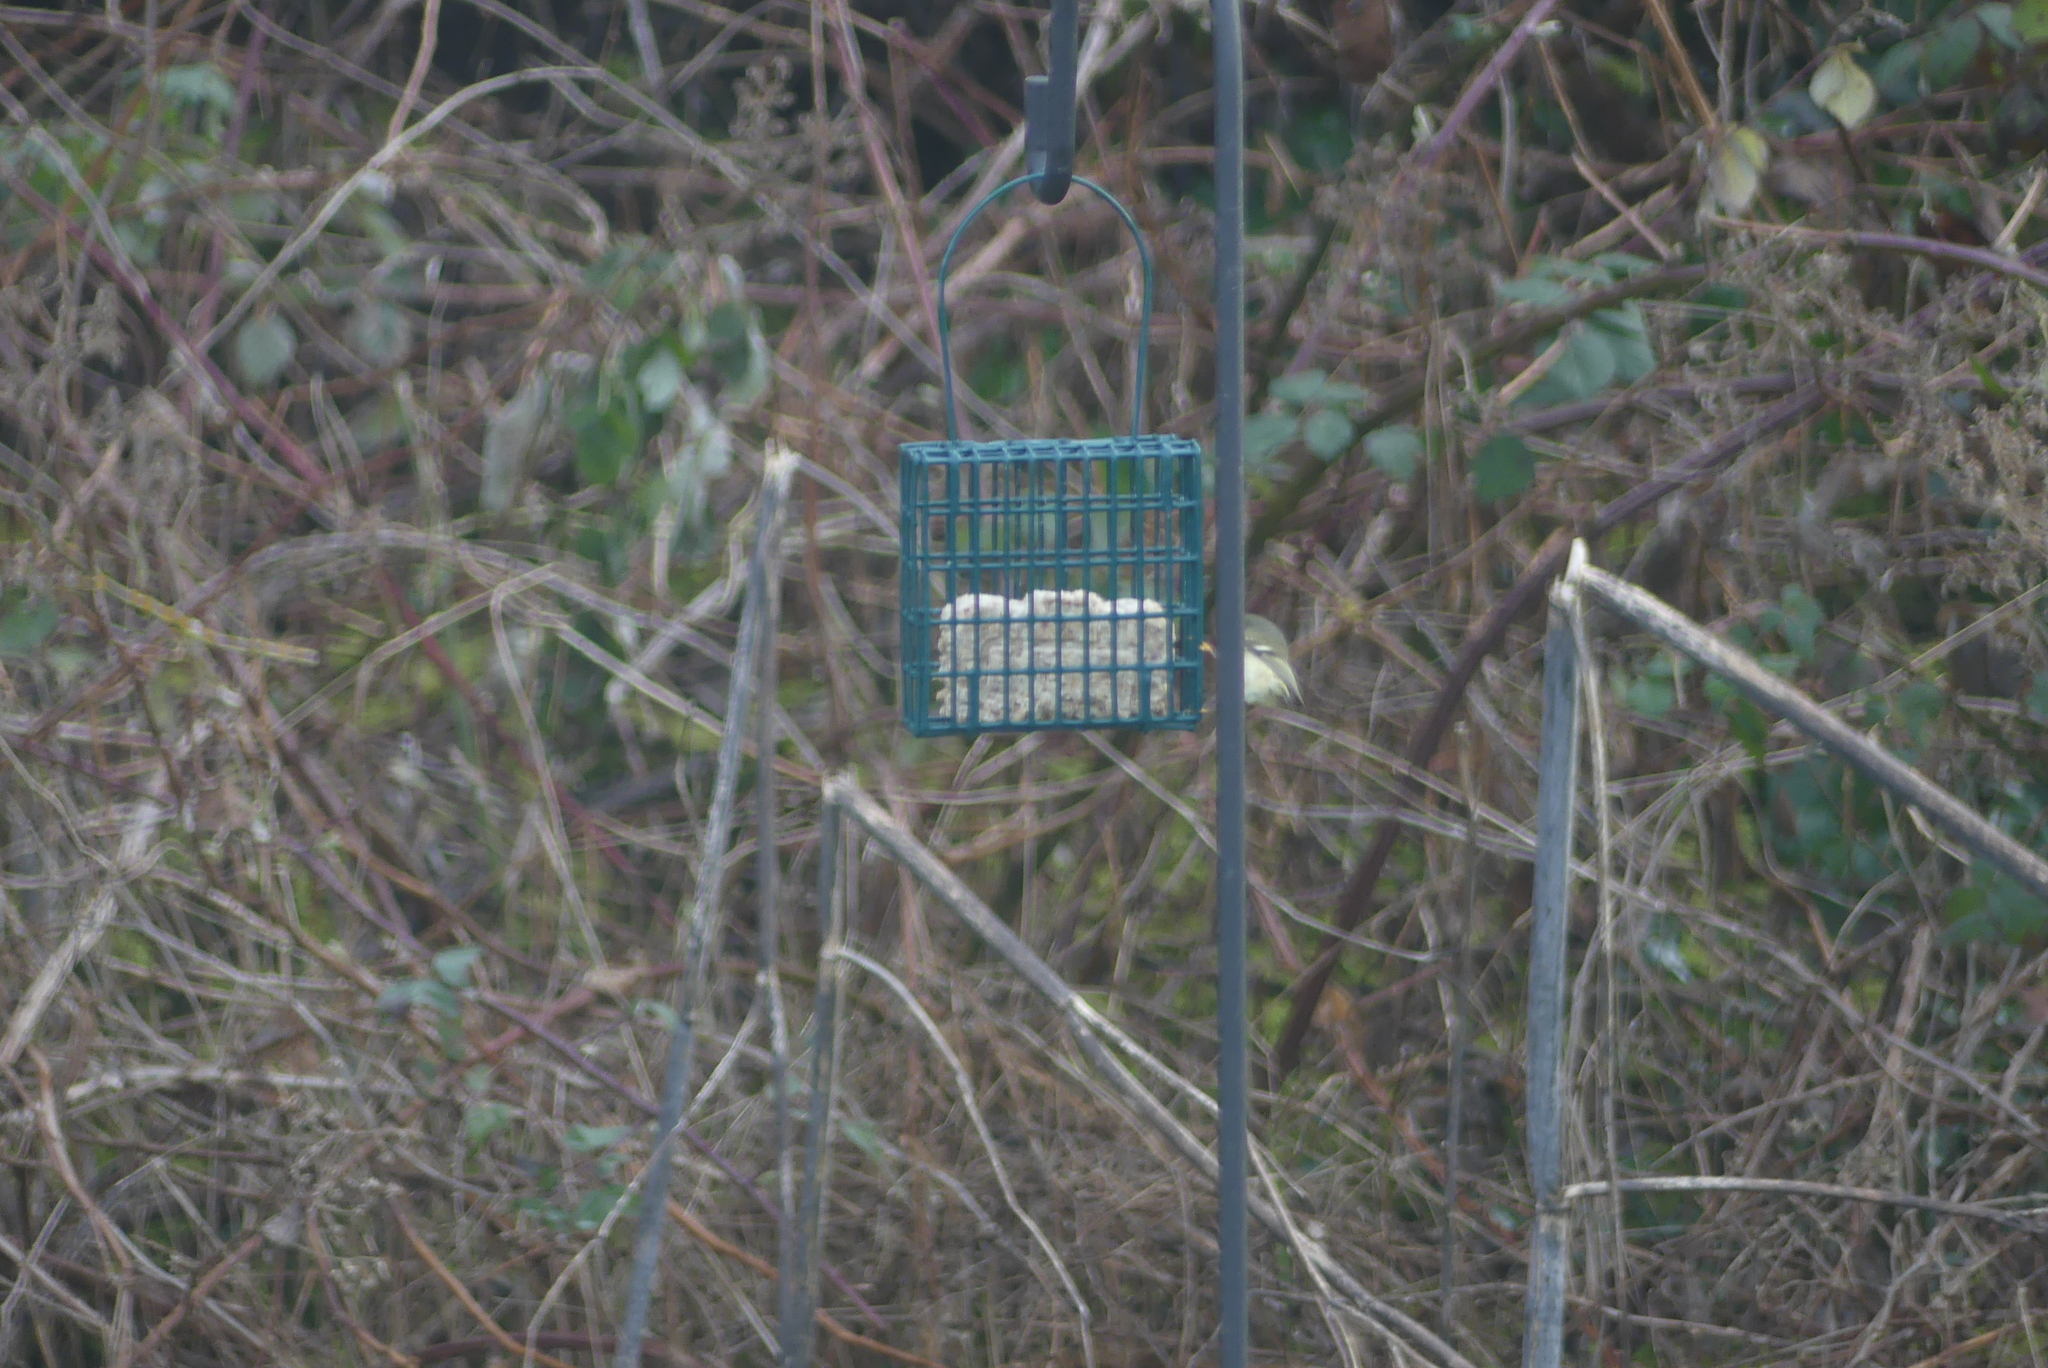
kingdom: Animalia
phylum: Chordata
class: Aves
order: Passeriformes
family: Regulidae
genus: Regulus
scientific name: Regulus calendula
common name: Ruby-crowned kinglet
